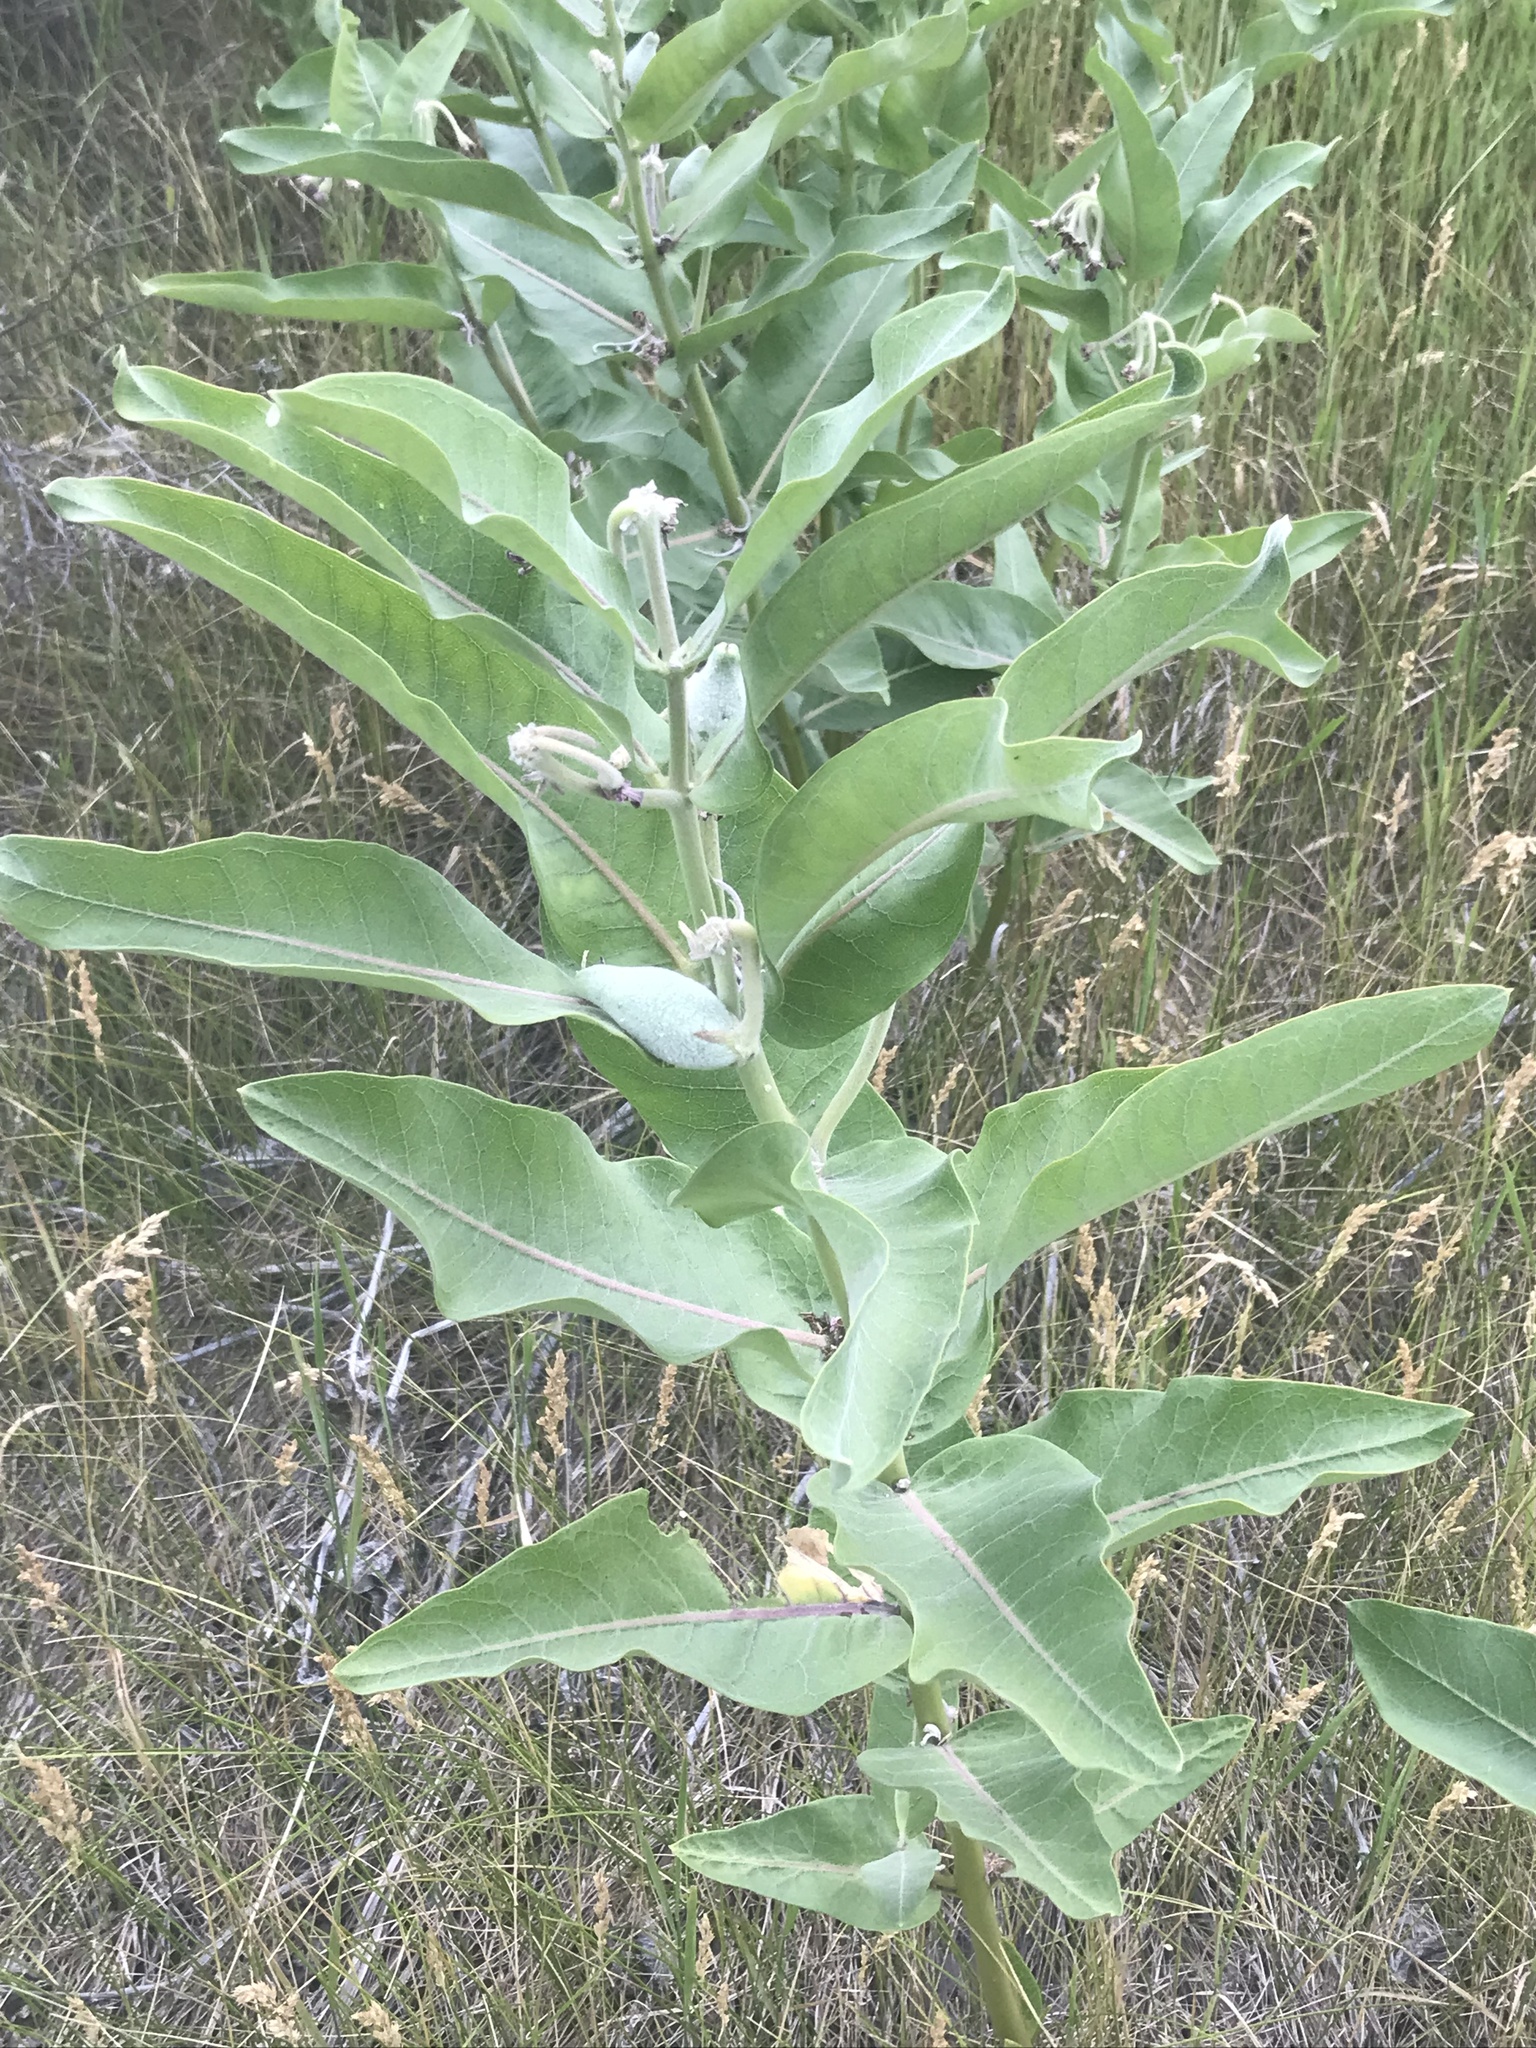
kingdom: Plantae
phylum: Tracheophyta
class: Magnoliopsida
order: Gentianales
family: Apocynaceae
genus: Asclepias
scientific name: Asclepias speciosa
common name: Showy milkweed
